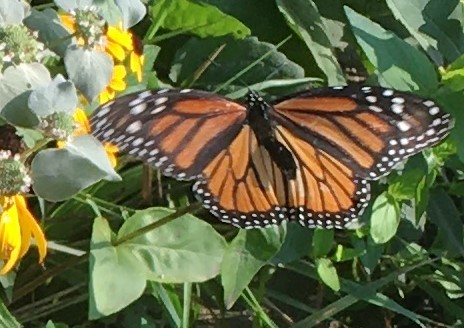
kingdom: Animalia
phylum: Arthropoda
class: Insecta
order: Lepidoptera
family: Nymphalidae
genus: Danaus
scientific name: Danaus plexippus
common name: Monarch
